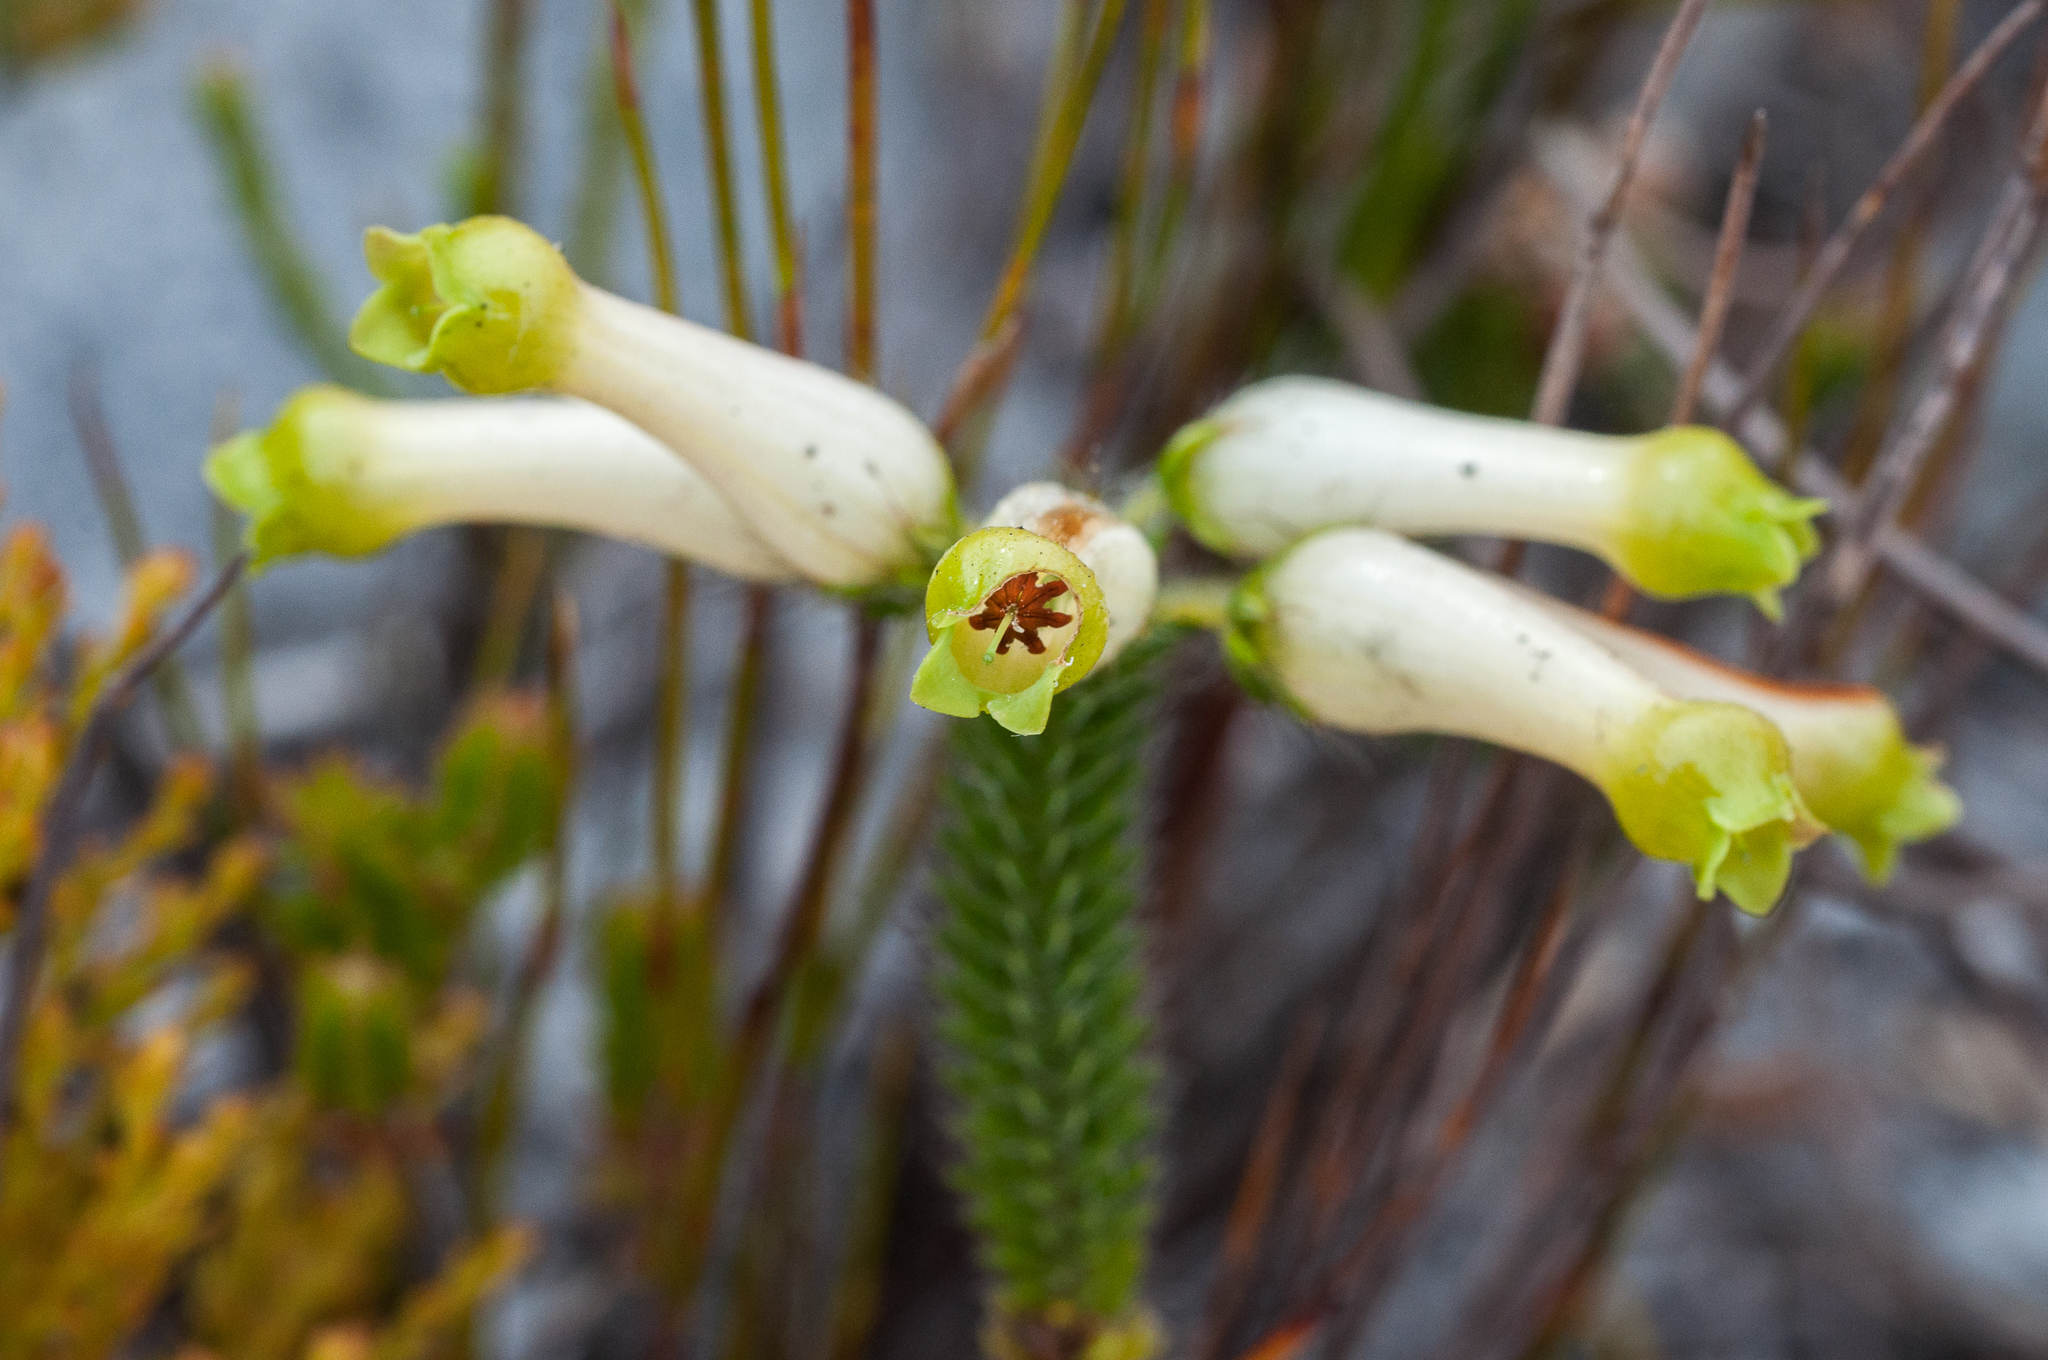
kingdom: Plantae
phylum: Tracheophyta
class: Magnoliopsida
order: Ericales
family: Ericaceae
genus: Erica
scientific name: Erica massonii
